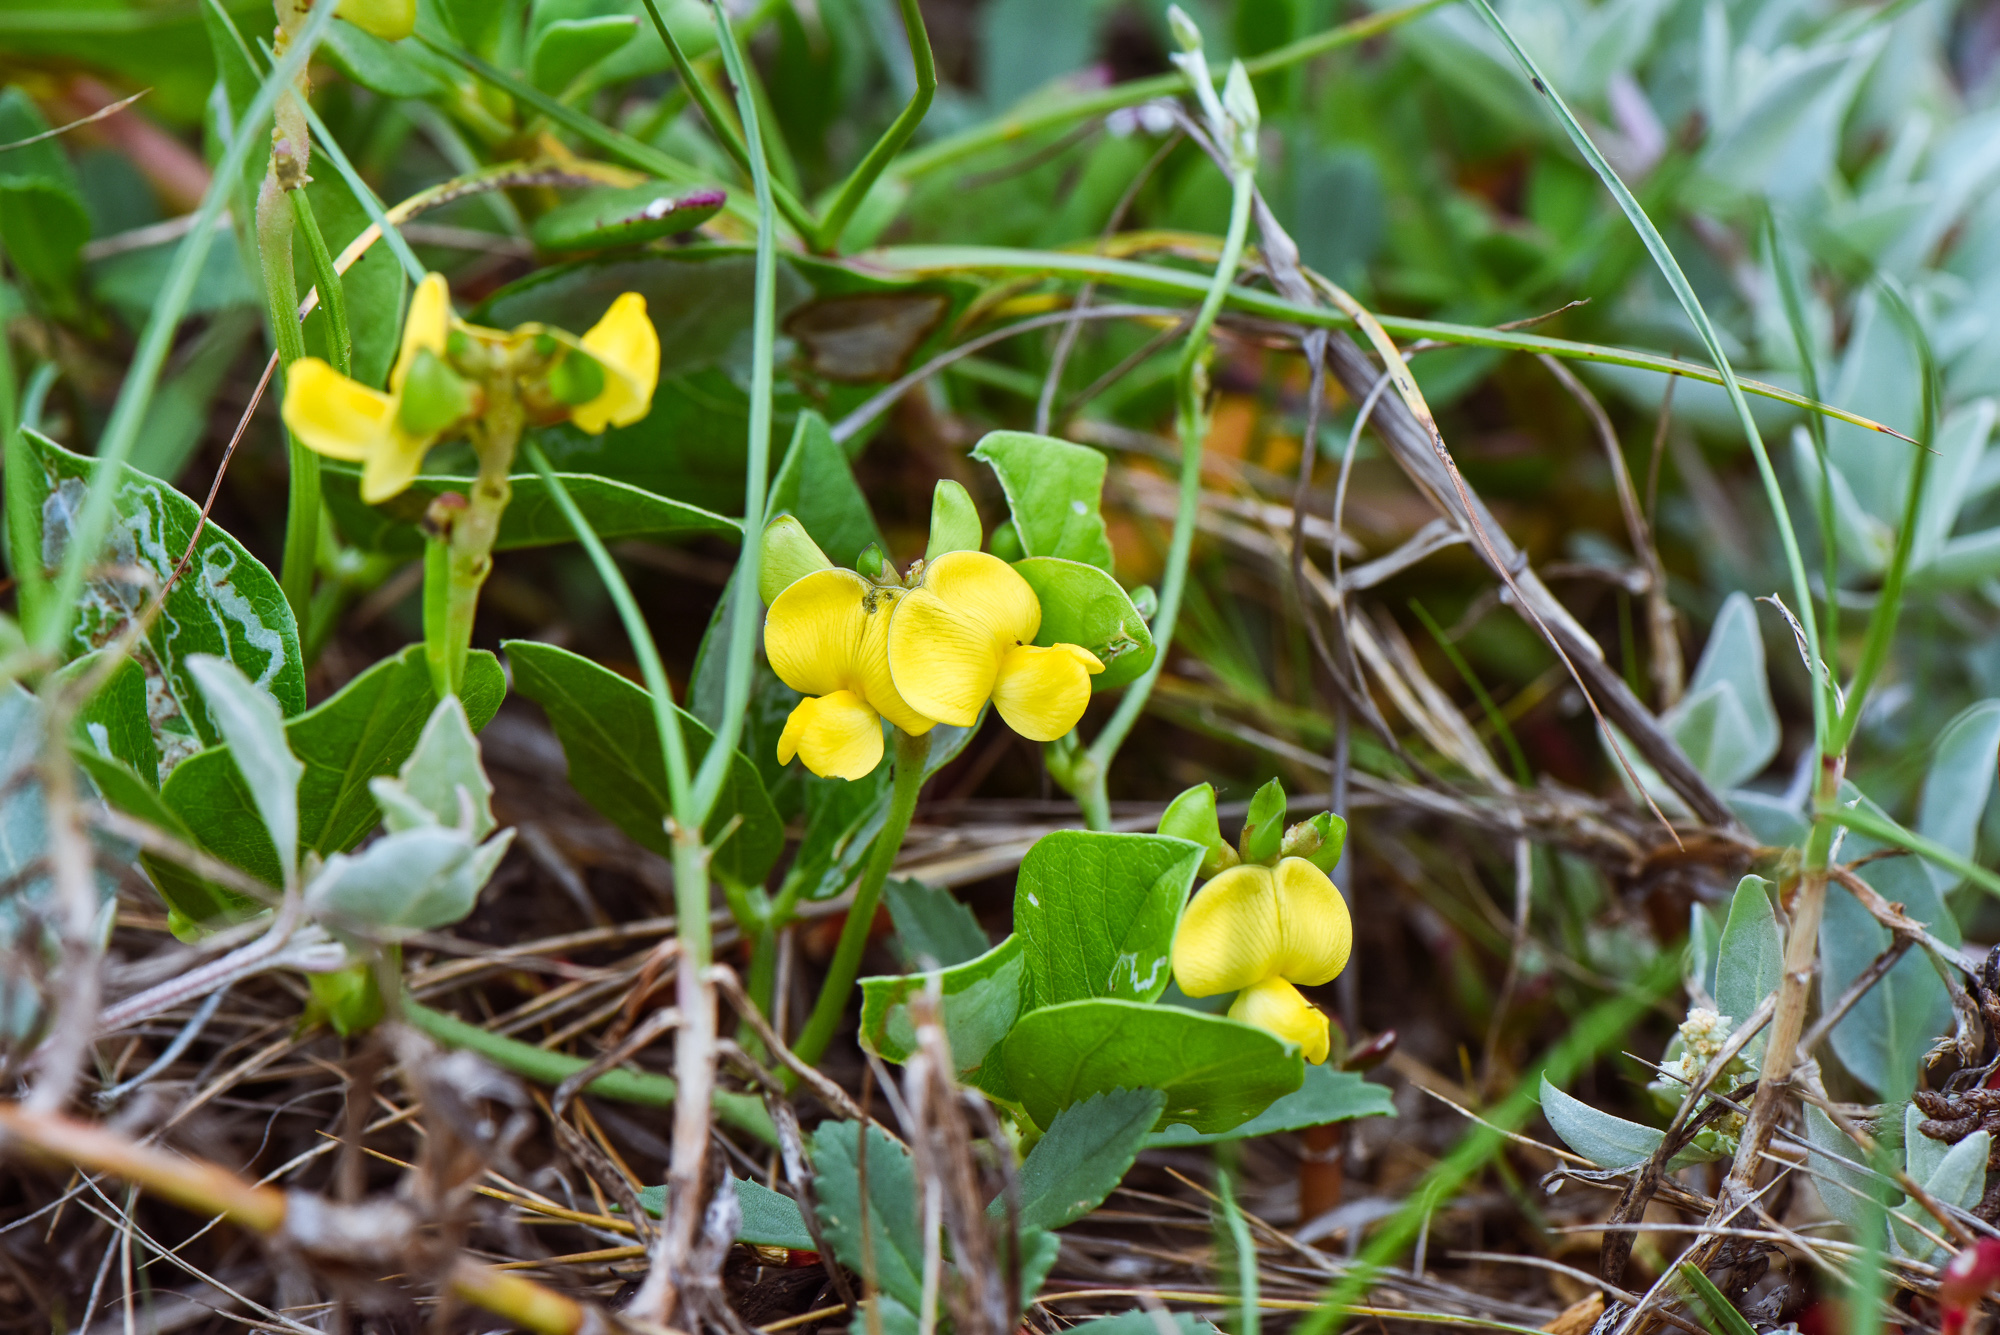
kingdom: Plantae
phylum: Tracheophyta
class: Magnoliopsida
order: Fabales
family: Fabaceae
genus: Vigna
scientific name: Vigna luteola
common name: Hairypod cowpea
